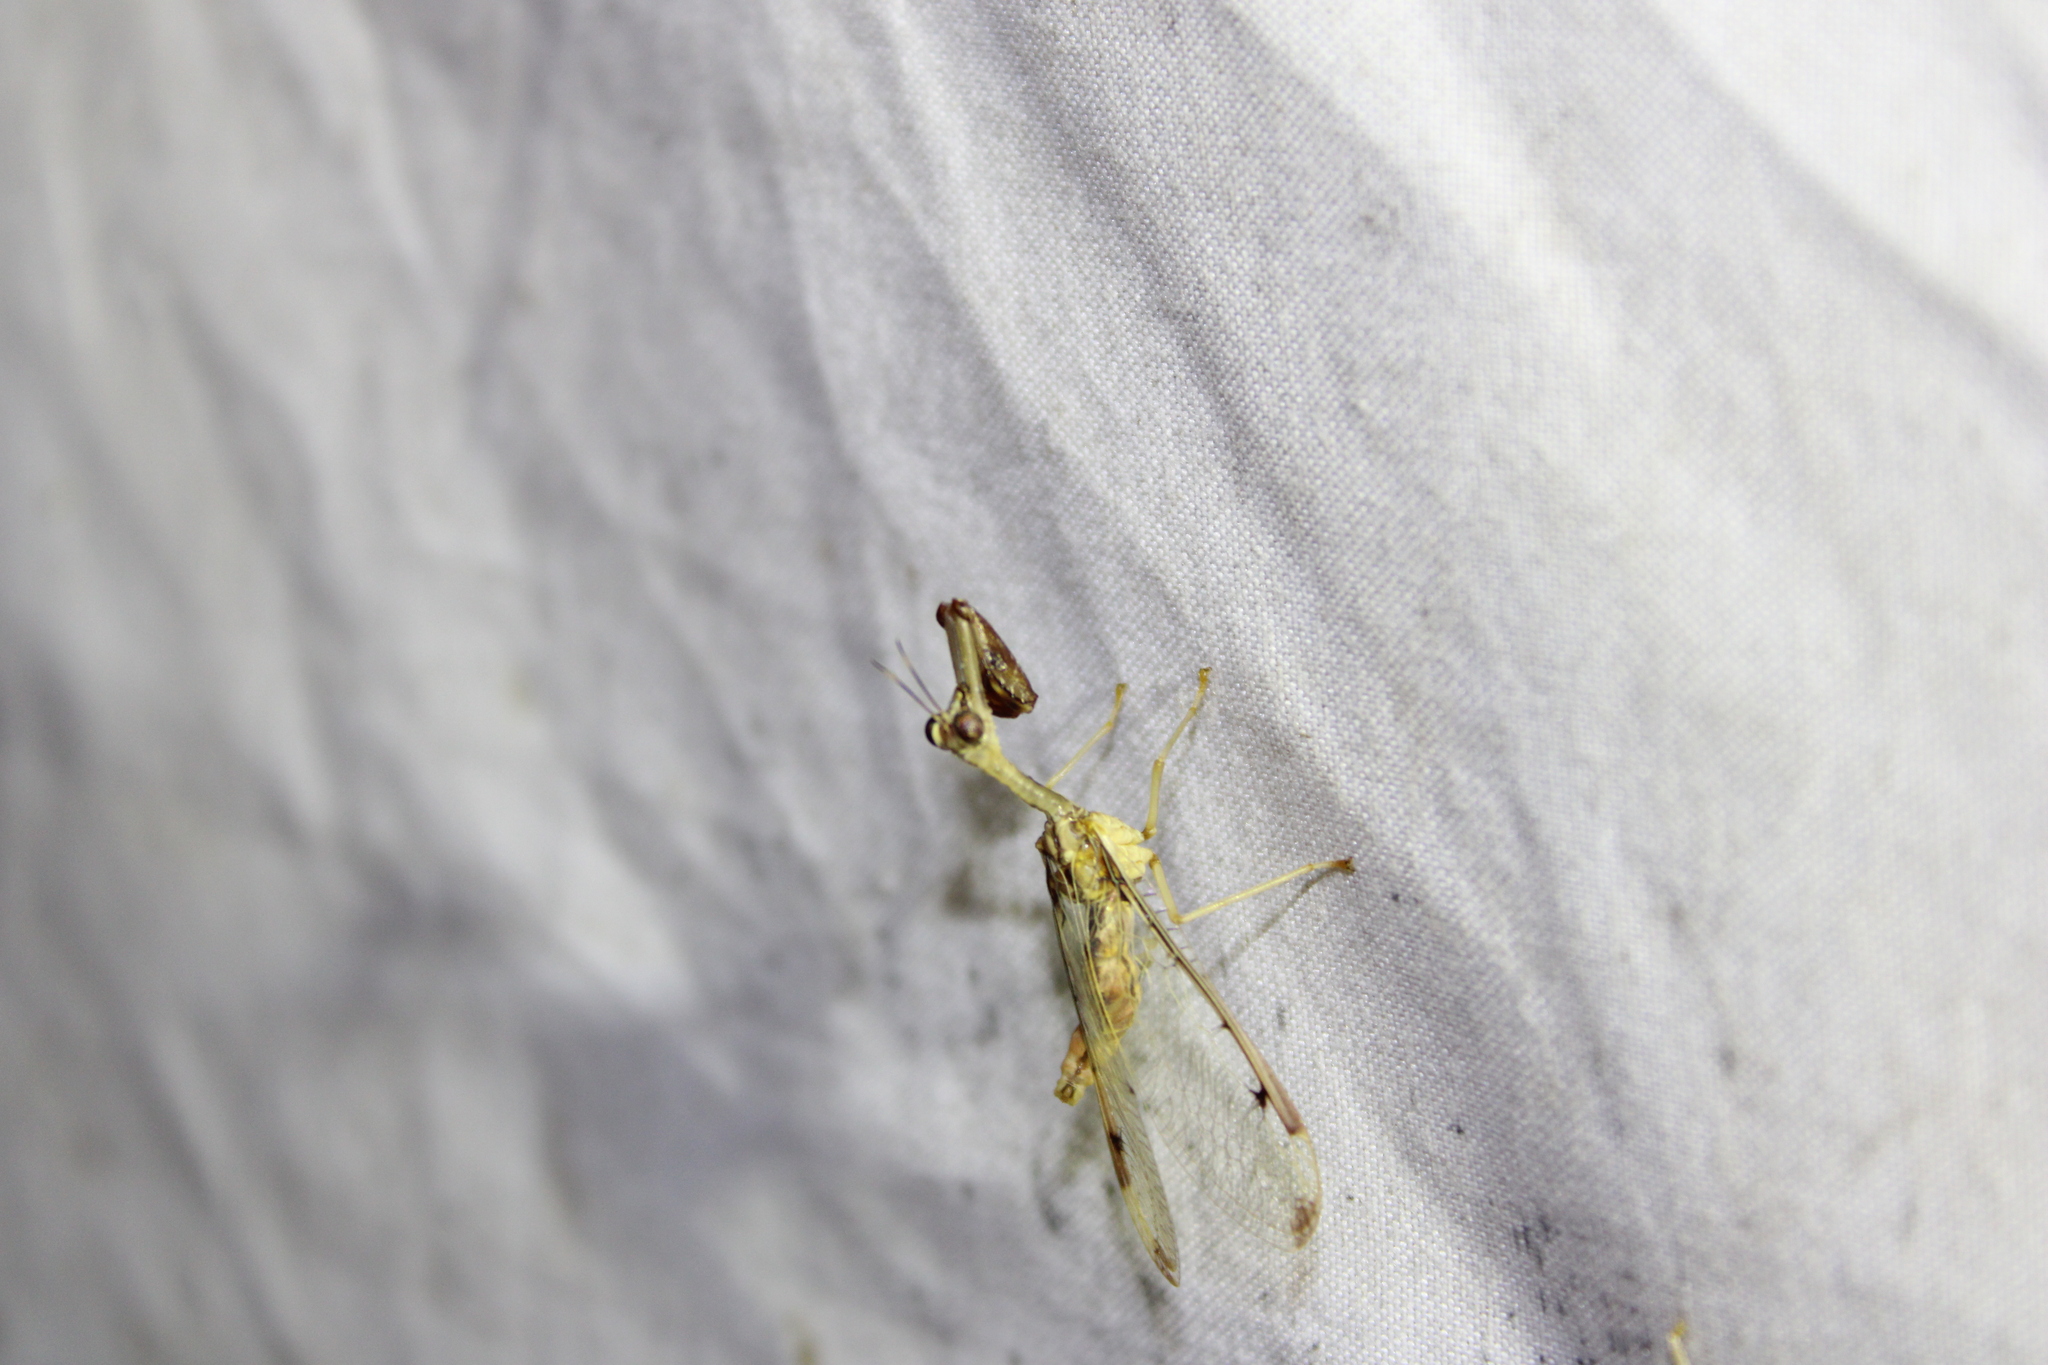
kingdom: Animalia
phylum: Arthropoda
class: Insecta
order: Neuroptera
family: Mantispidae
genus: Dicromantispa
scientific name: Dicromantispa interrupta
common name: Four-spotted mantidfly
